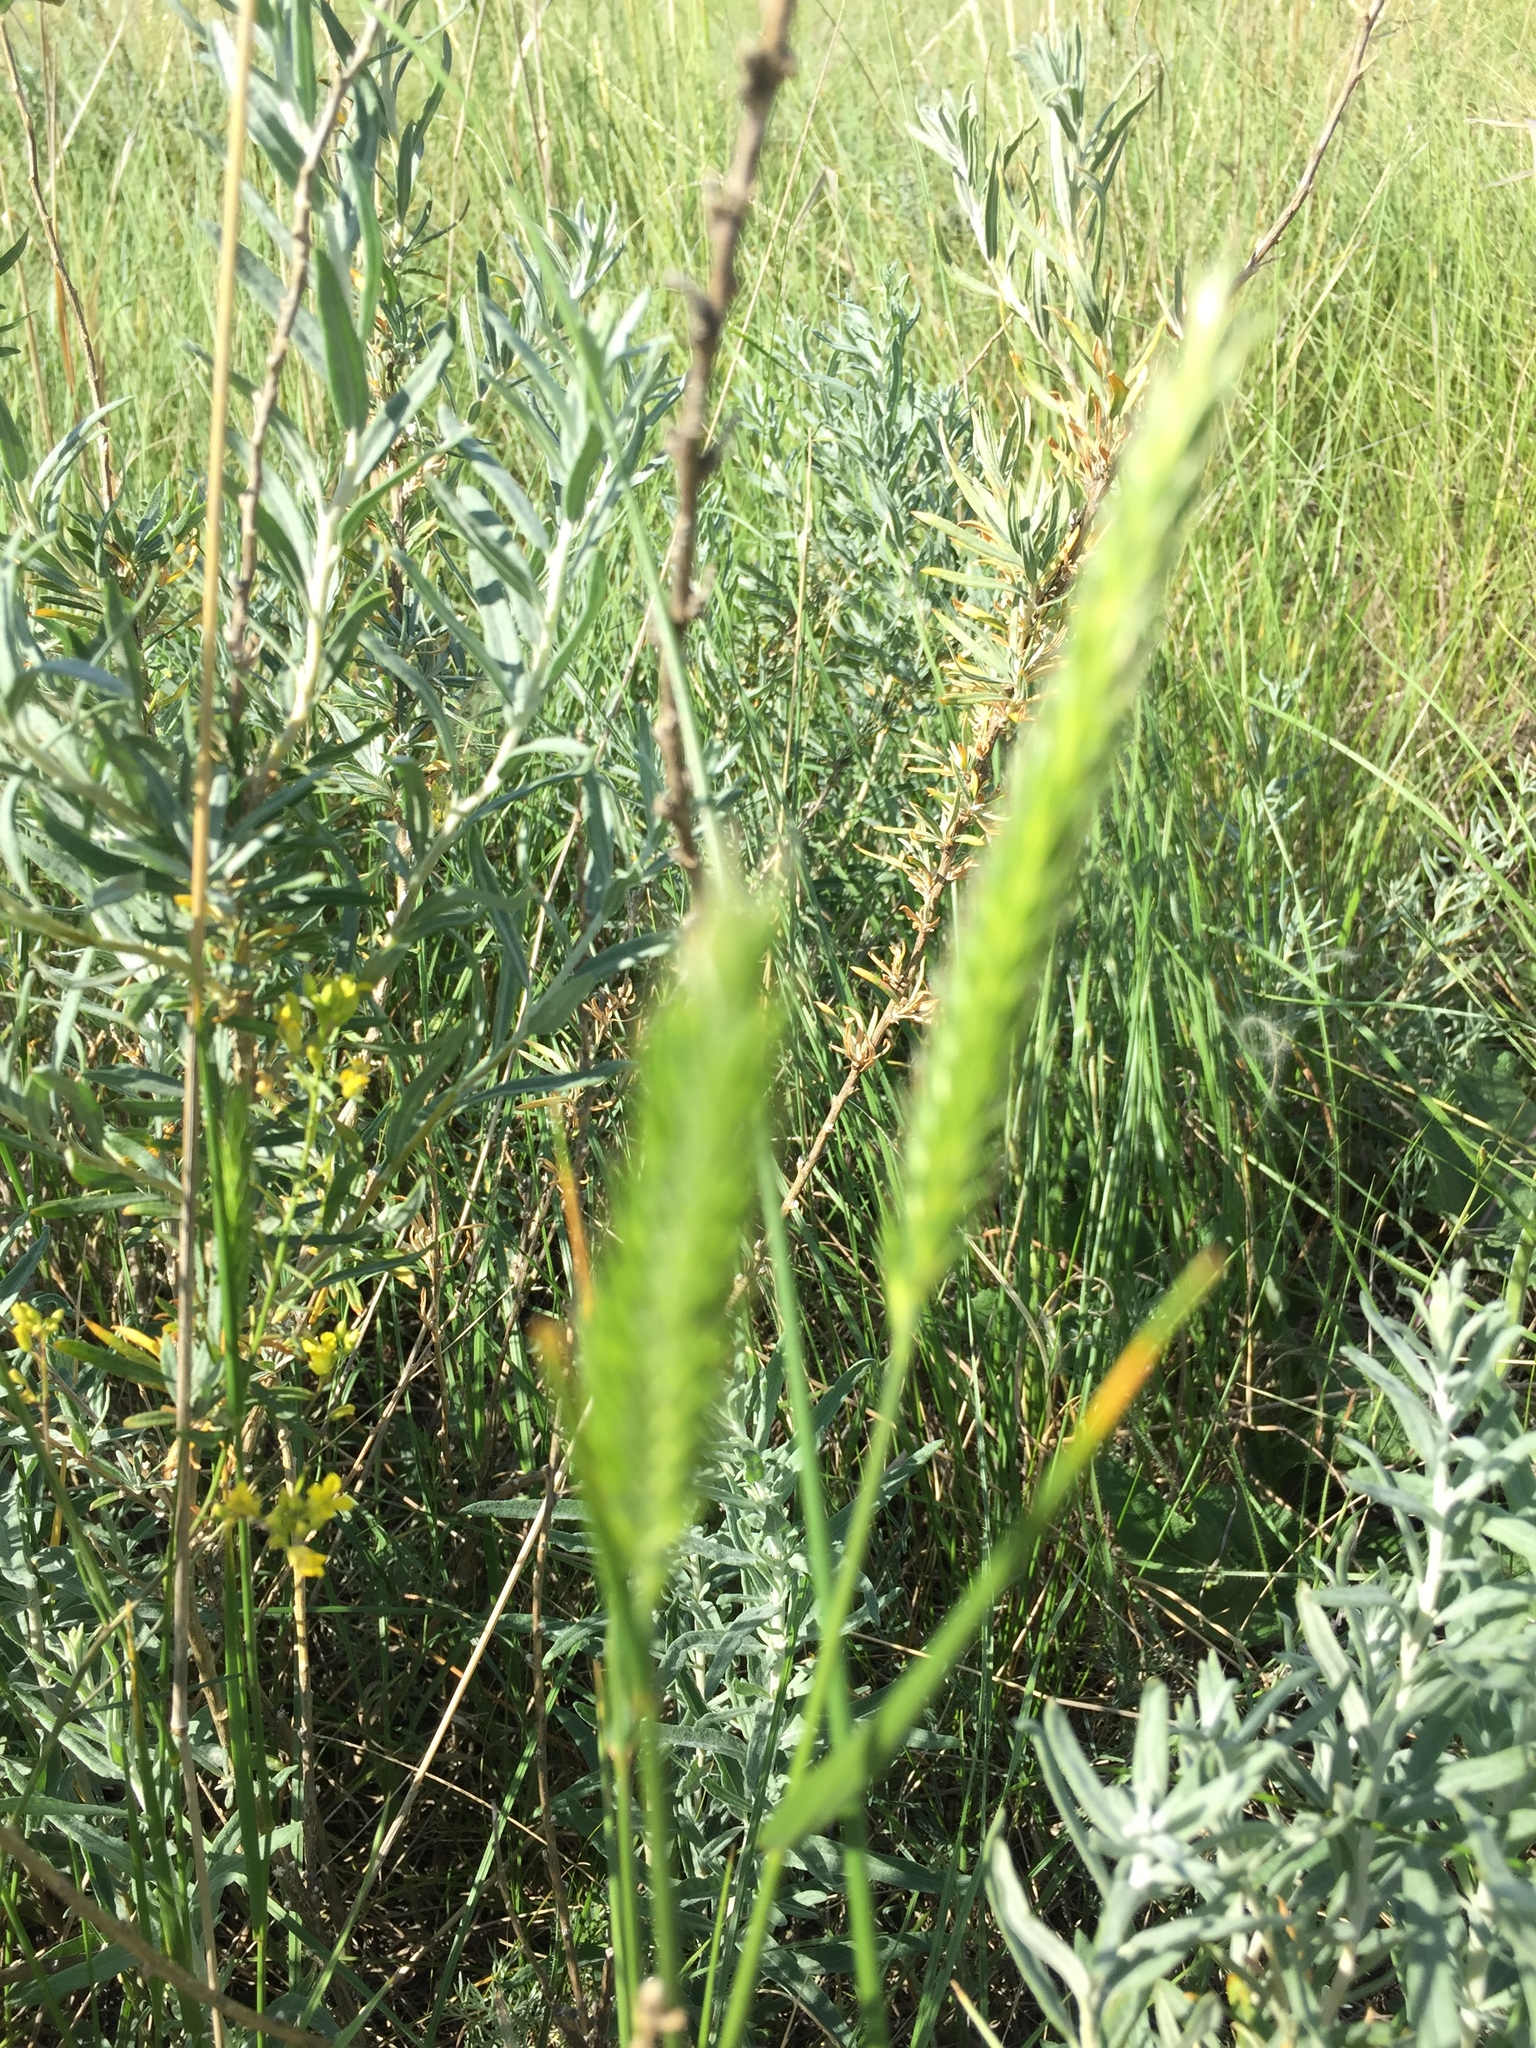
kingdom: Plantae
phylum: Tracheophyta
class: Liliopsida
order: Poales
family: Poaceae
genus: Agropyron
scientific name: Agropyron cristatum
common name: Crested wheatgrass
